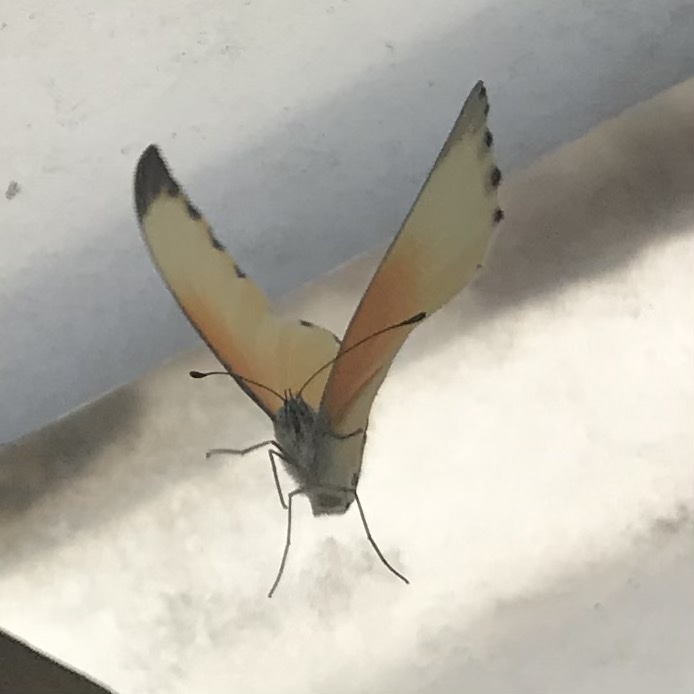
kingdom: Animalia
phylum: Arthropoda
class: Insecta
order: Lepidoptera
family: Pieridae
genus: Mylothris
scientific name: Mylothris rueppellii
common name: Twin dotted border
